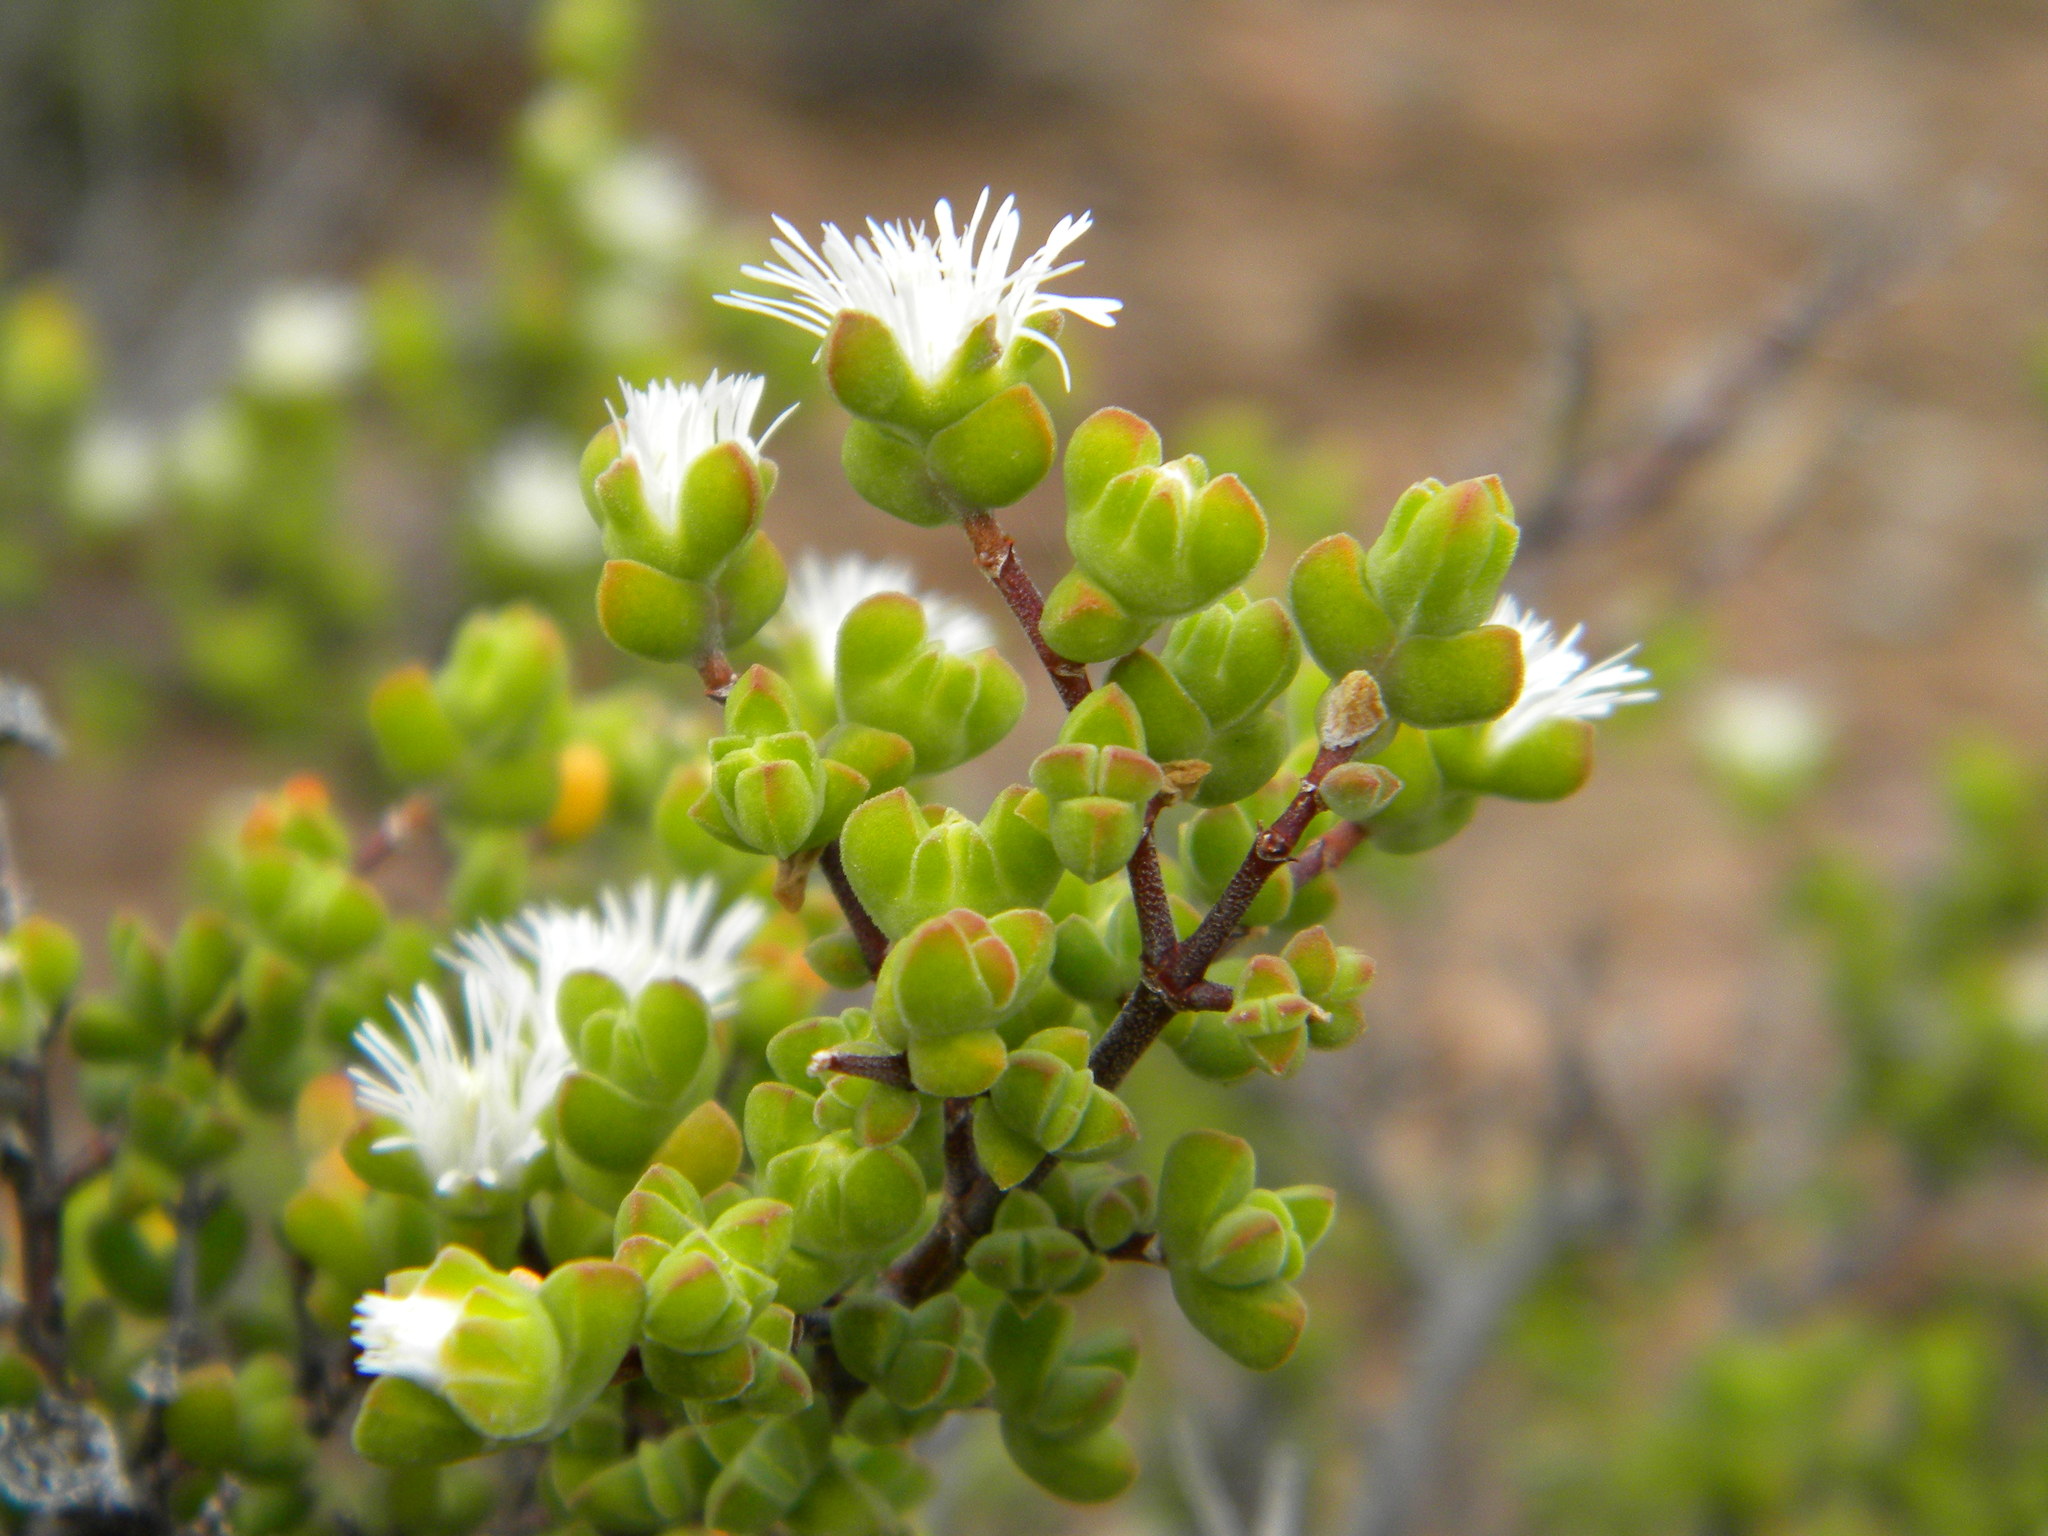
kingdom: Plantae
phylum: Tracheophyta
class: Magnoliopsida
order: Caryophyllales
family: Aizoaceae
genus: Drosanthemum
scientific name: Drosanthemum praecultum
